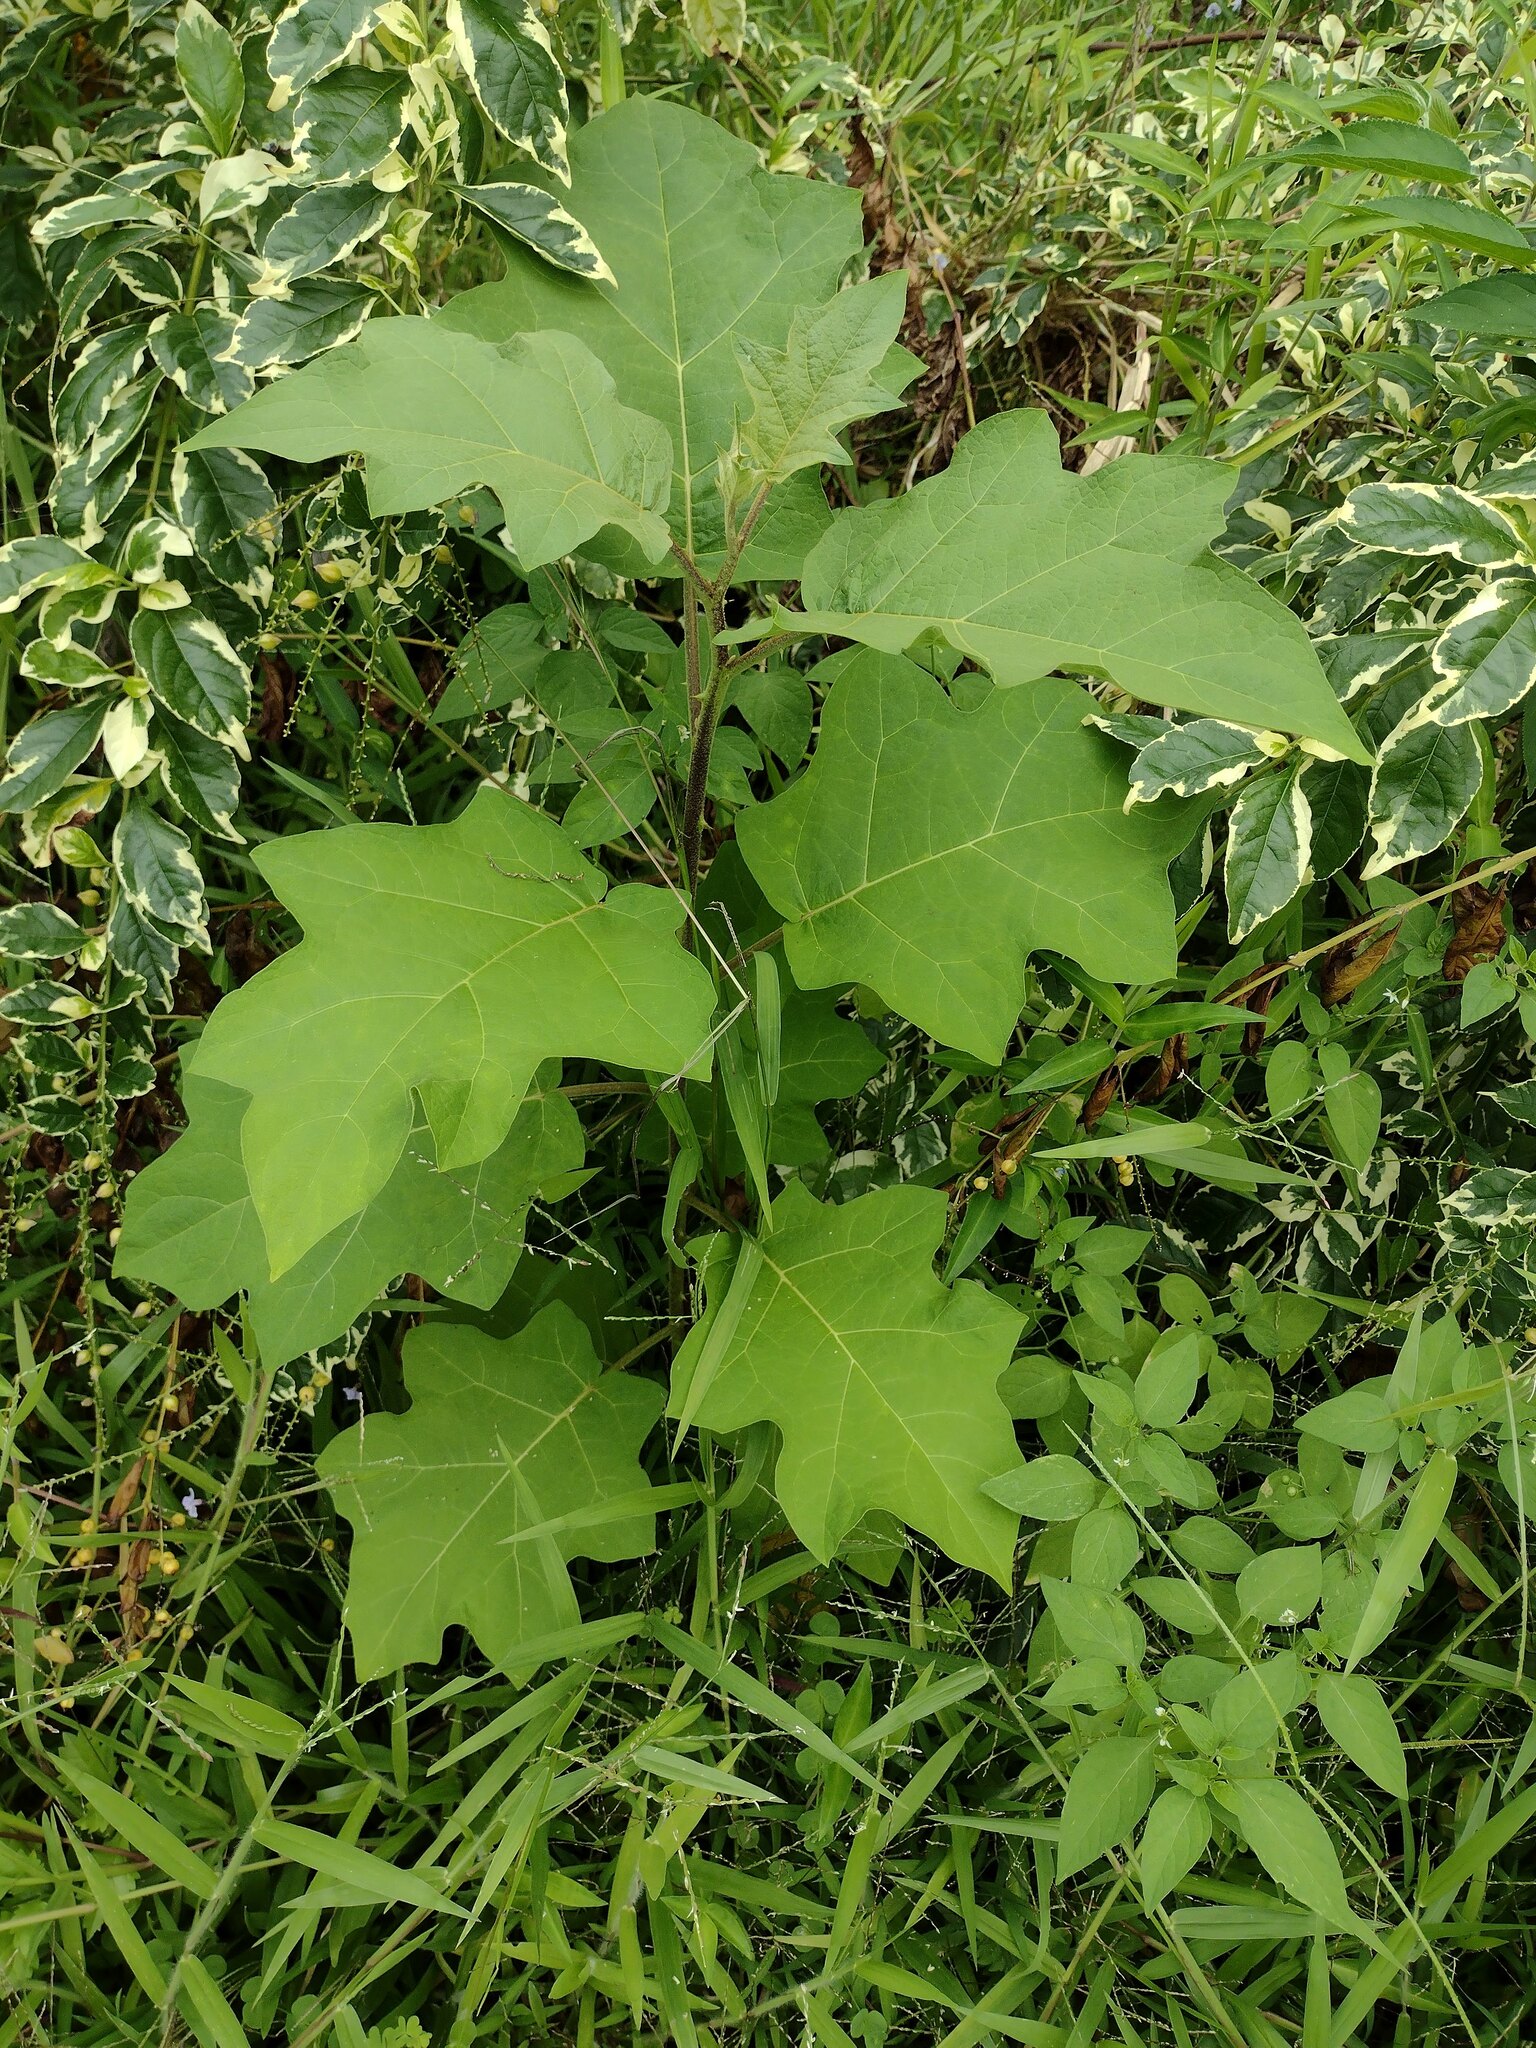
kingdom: Plantae
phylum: Tracheophyta
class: Magnoliopsida
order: Solanales
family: Solanaceae
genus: Solanum
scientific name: Solanum torvum
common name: Turkey berry
